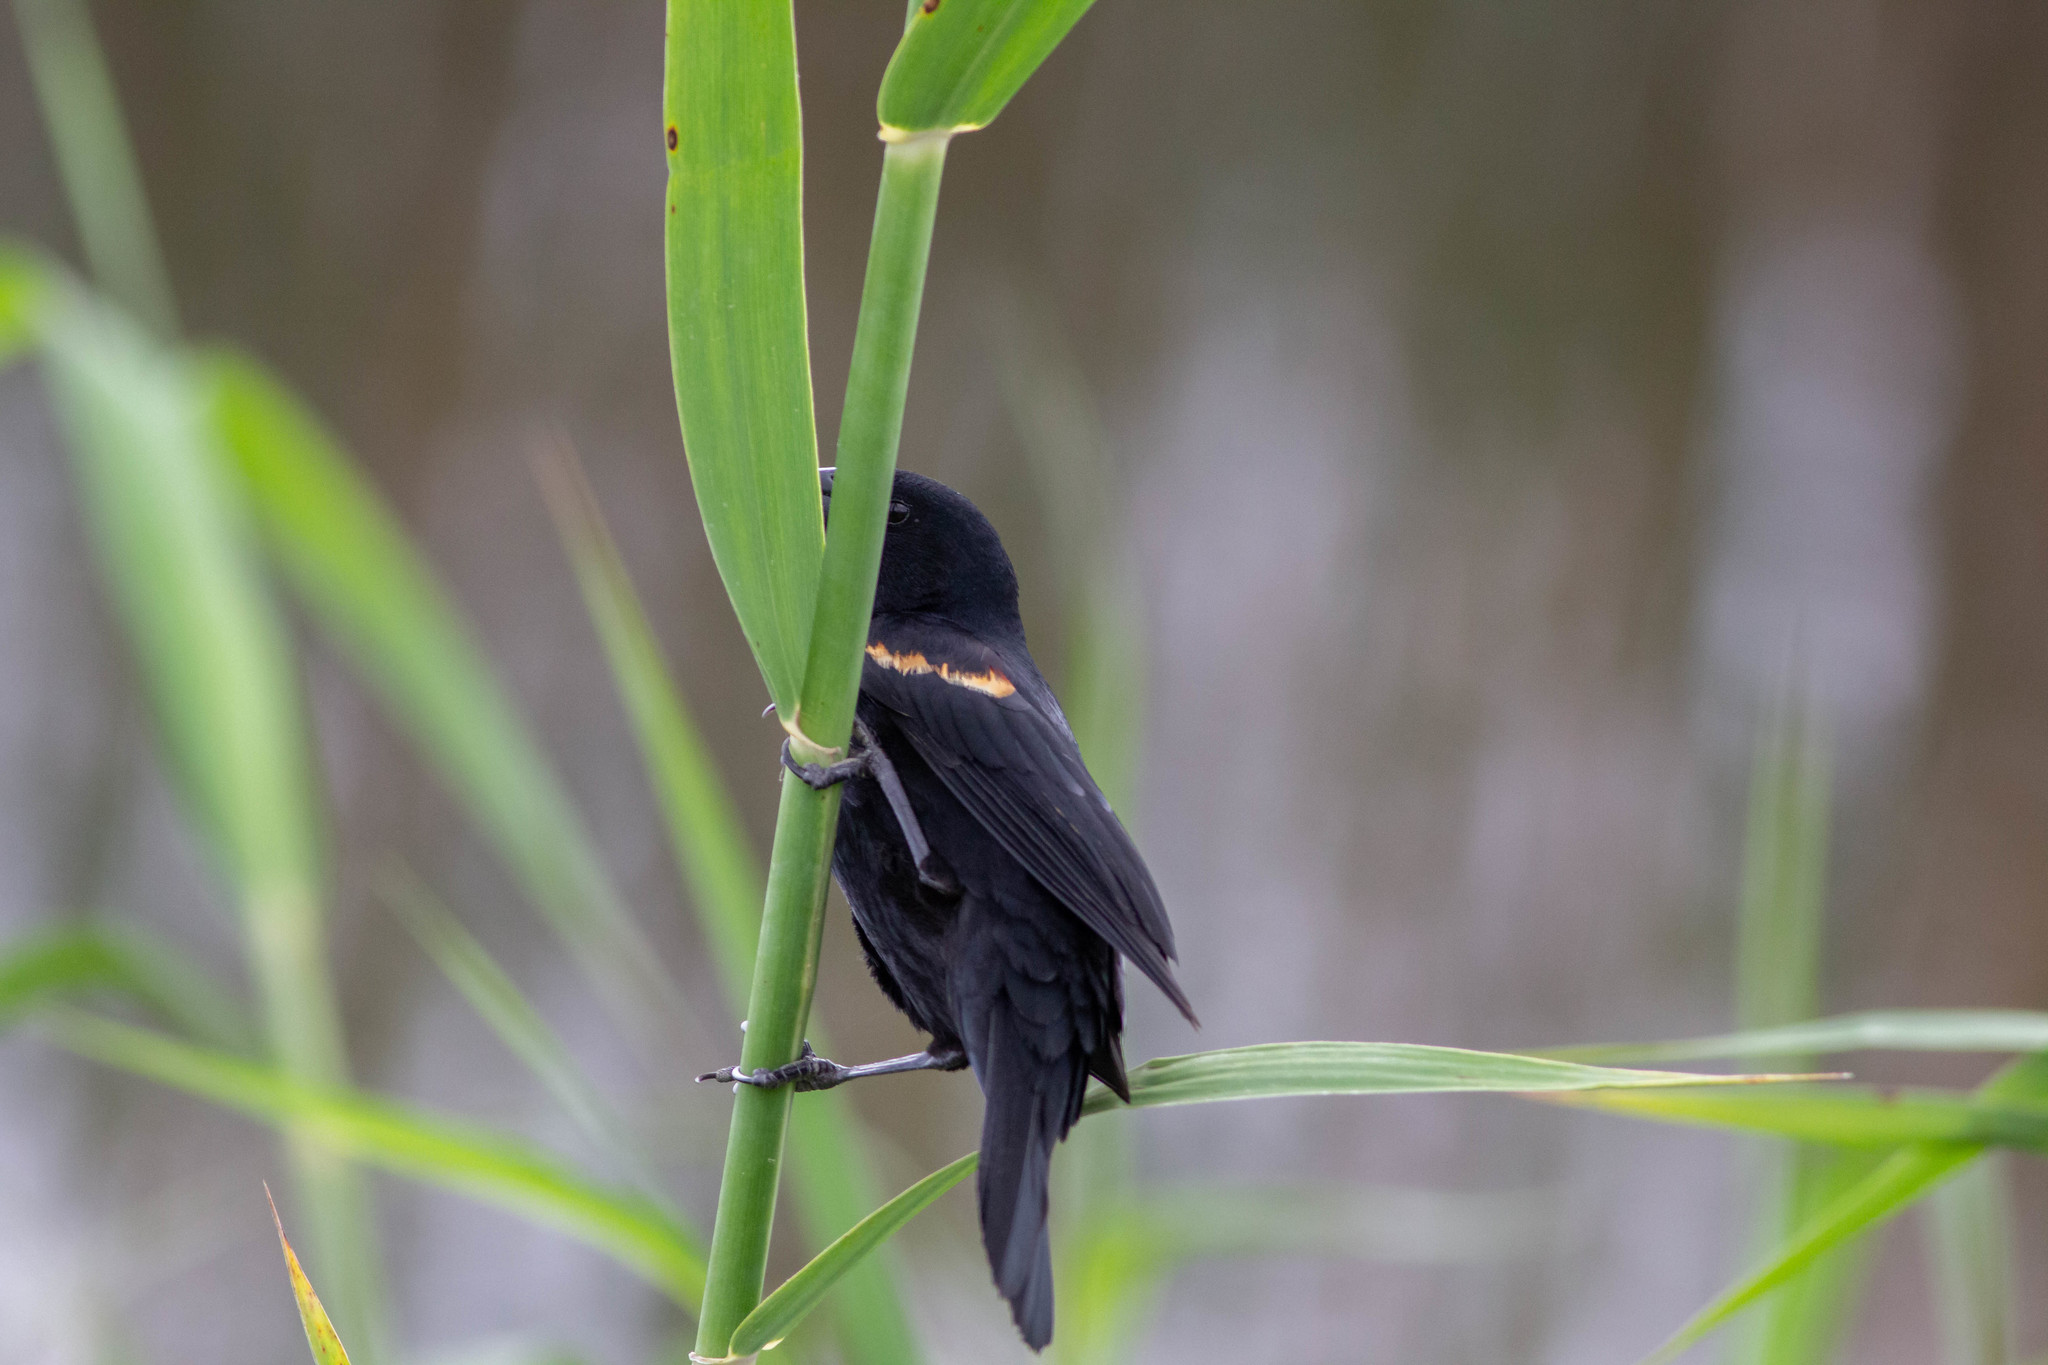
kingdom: Animalia
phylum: Chordata
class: Aves
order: Passeriformes
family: Icteridae
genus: Agelaius
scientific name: Agelaius phoeniceus
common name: Red-winged blackbird
